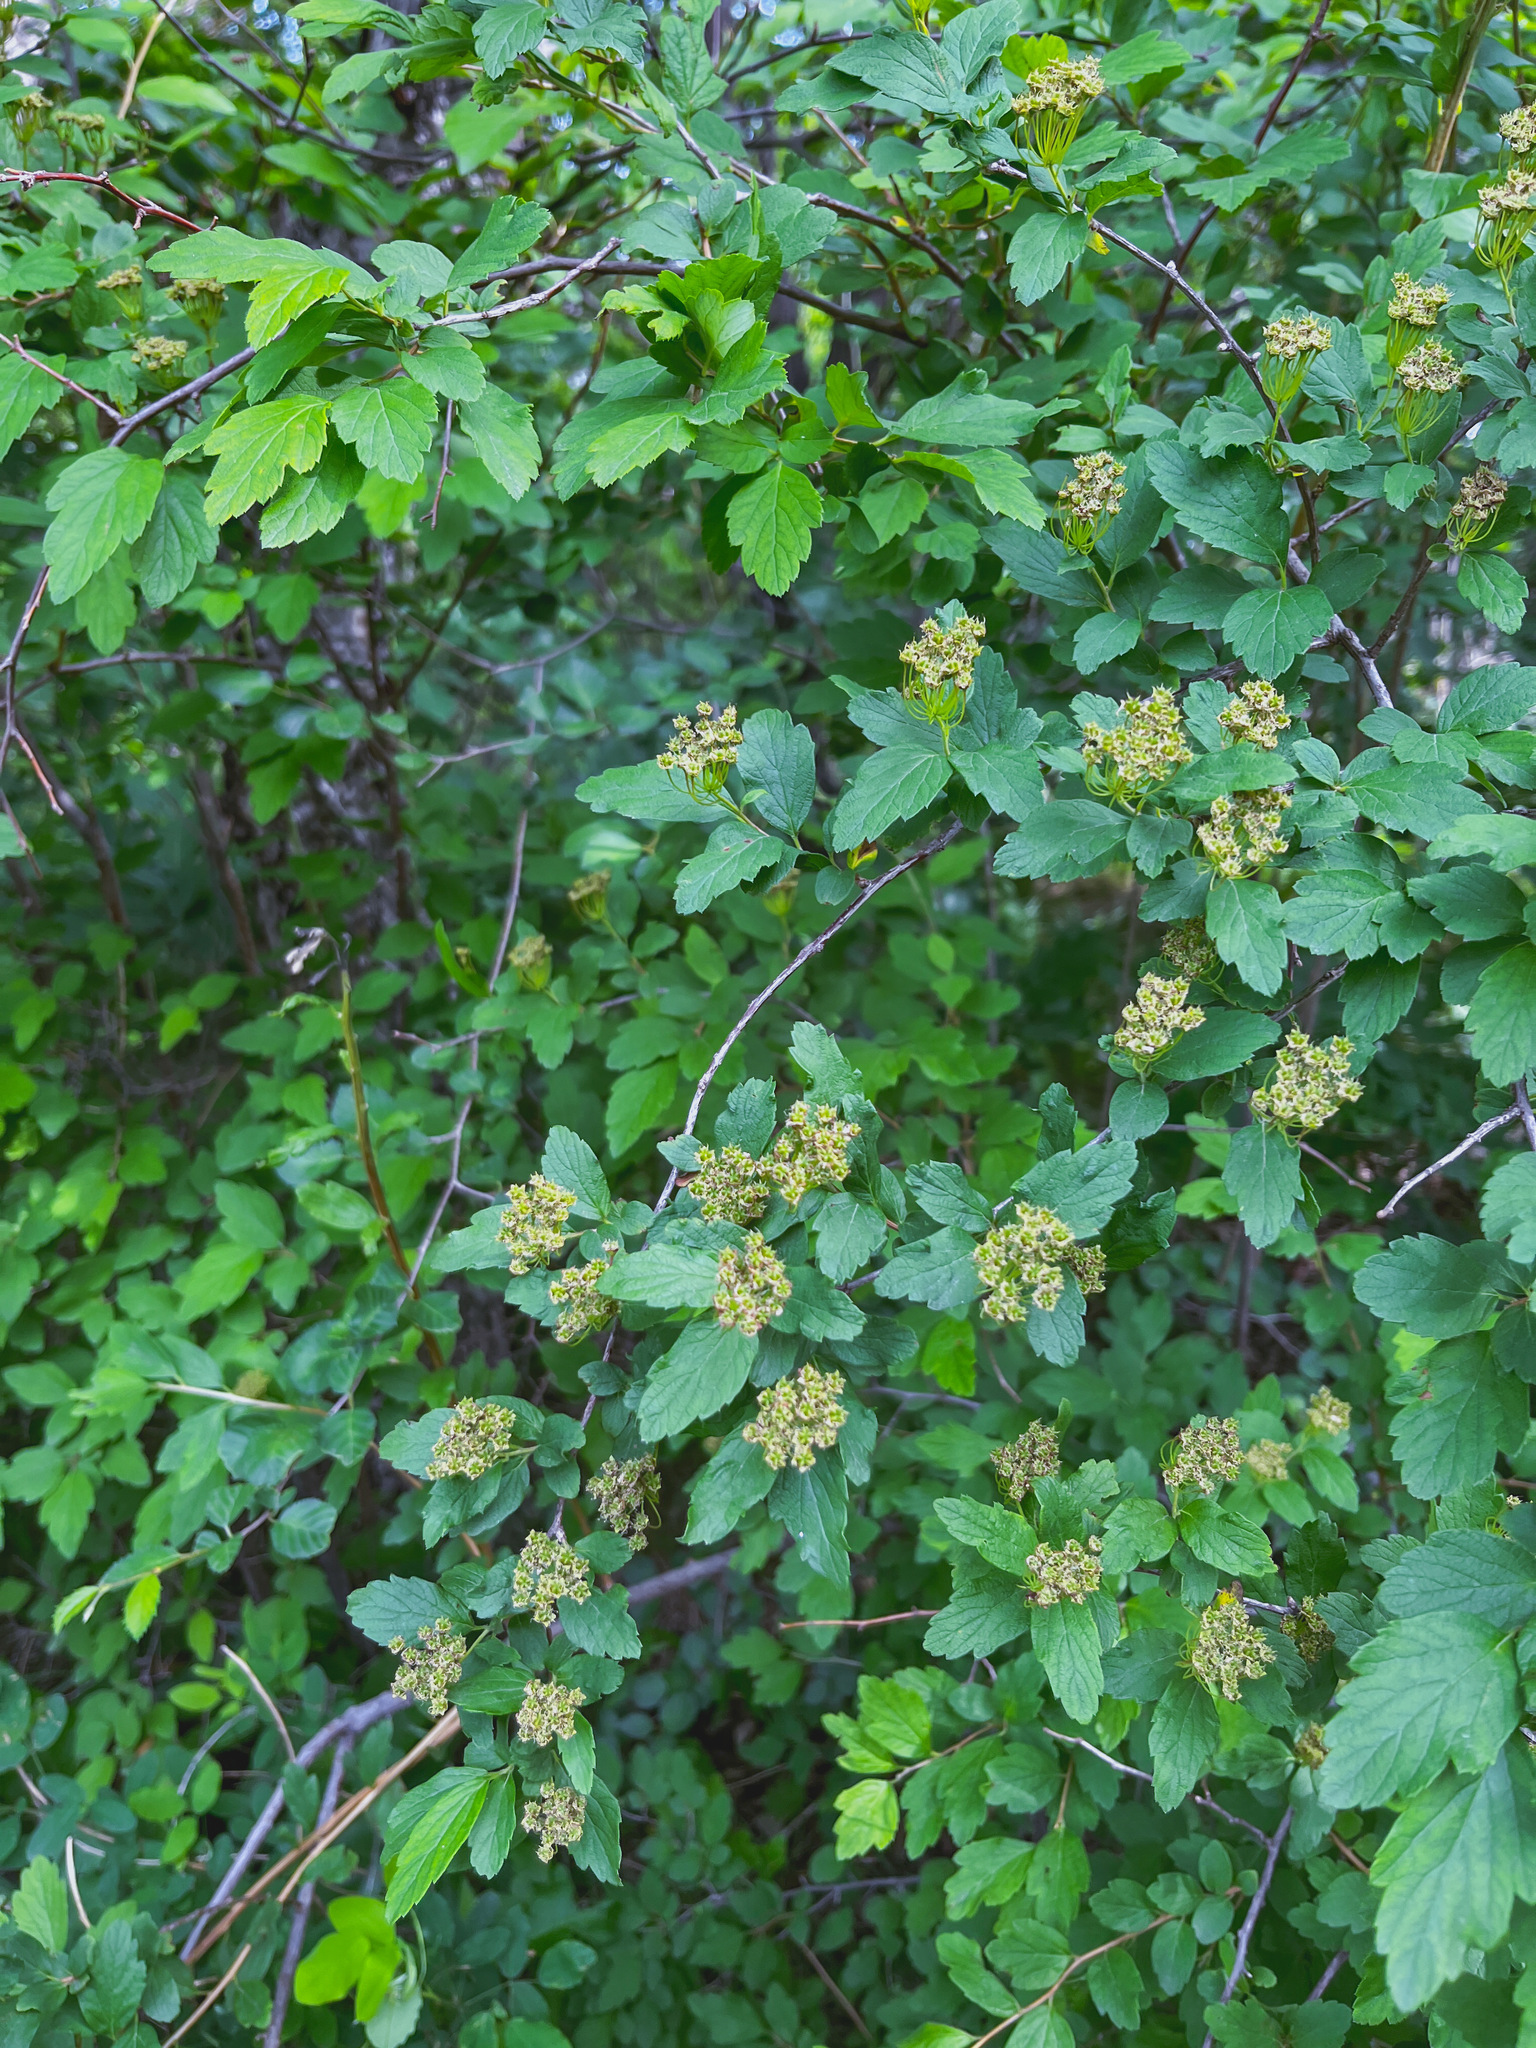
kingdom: Plantae
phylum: Tracheophyta
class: Magnoliopsida
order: Rosales
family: Rosaceae
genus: Spiraea
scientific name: Spiraea ouensanensis
